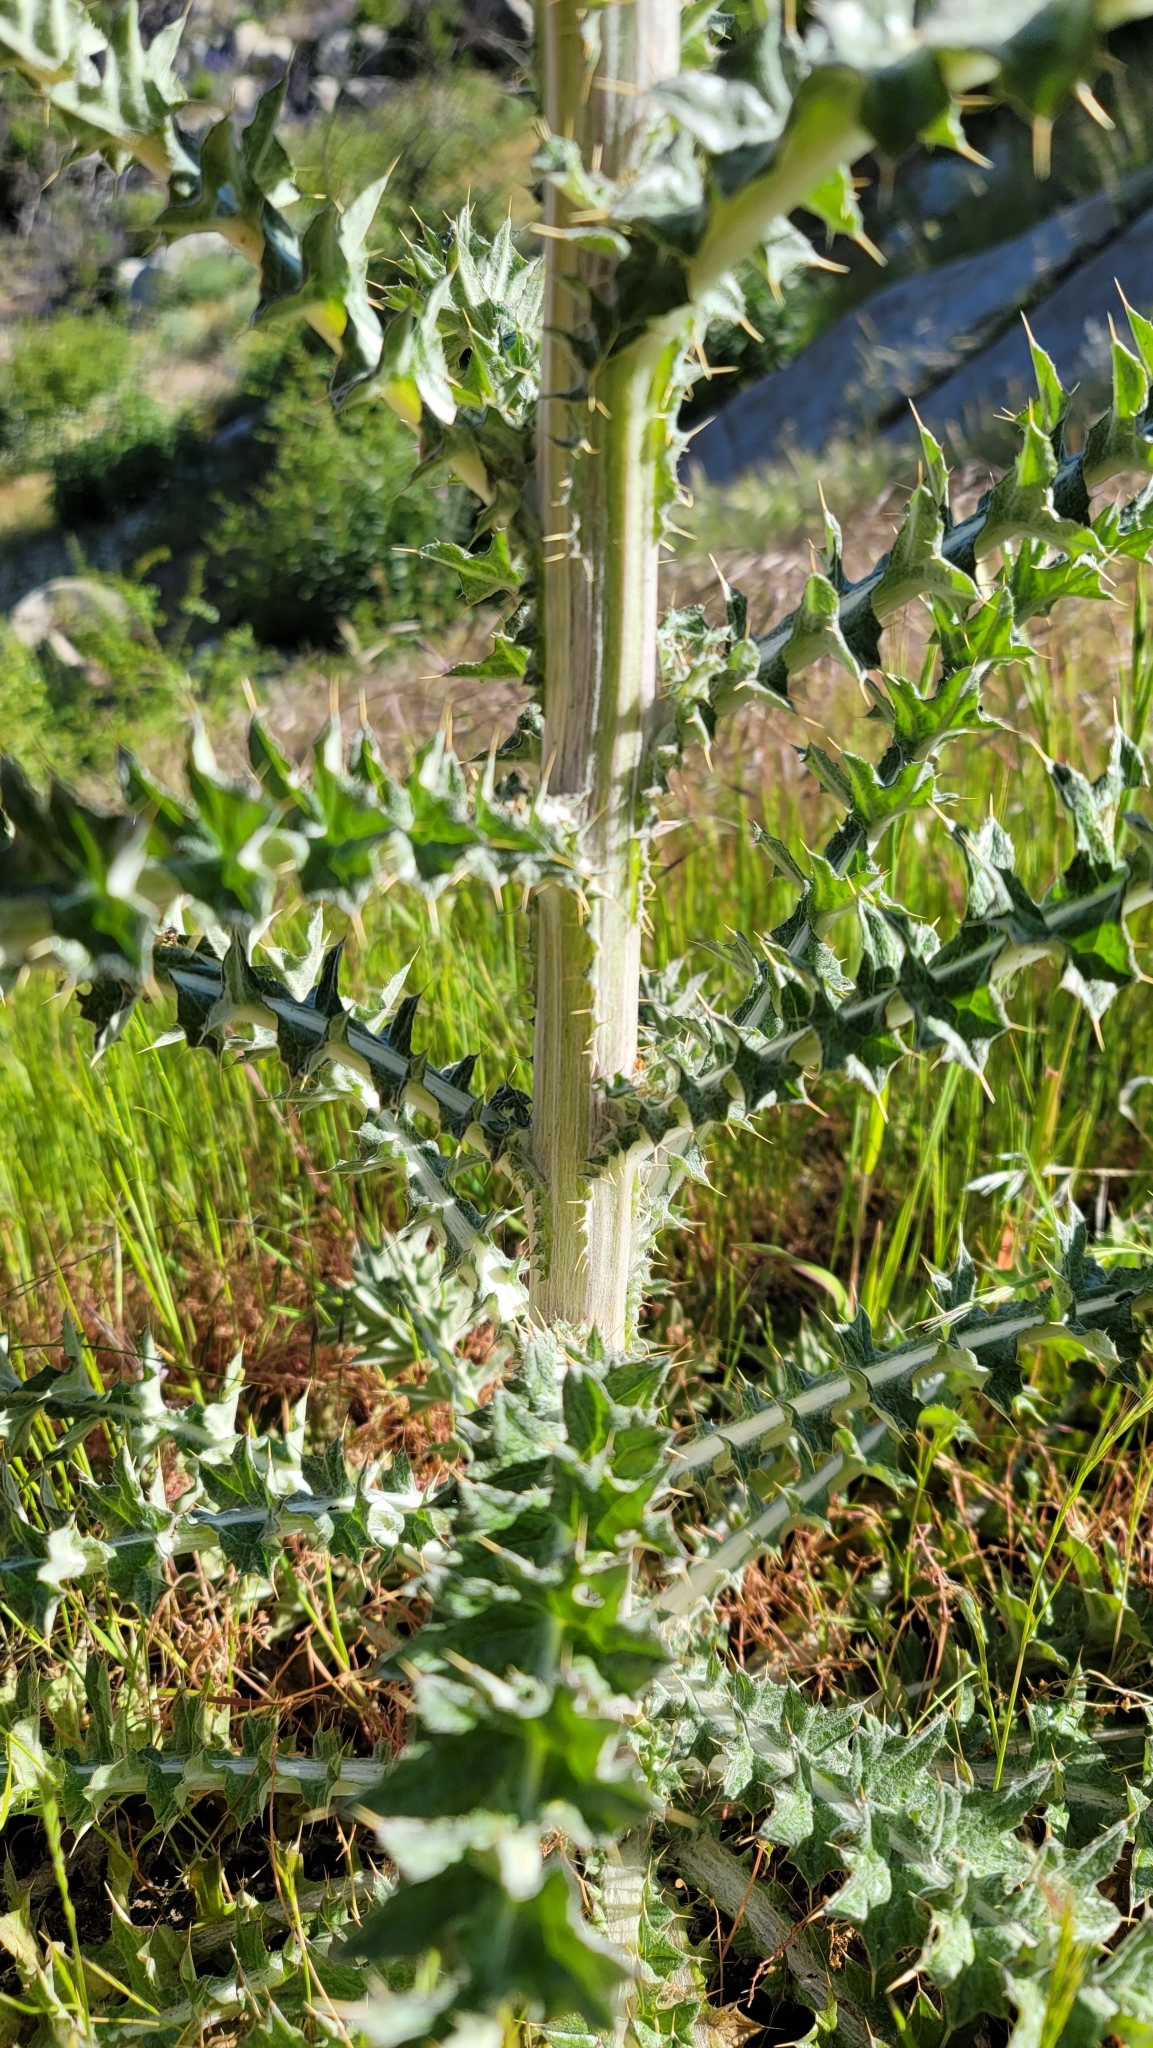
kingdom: Plantae
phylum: Tracheophyta
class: Magnoliopsida
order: Asterales
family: Asteraceae
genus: Cirsium
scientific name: Cirsium occidentale
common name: Western thistle
